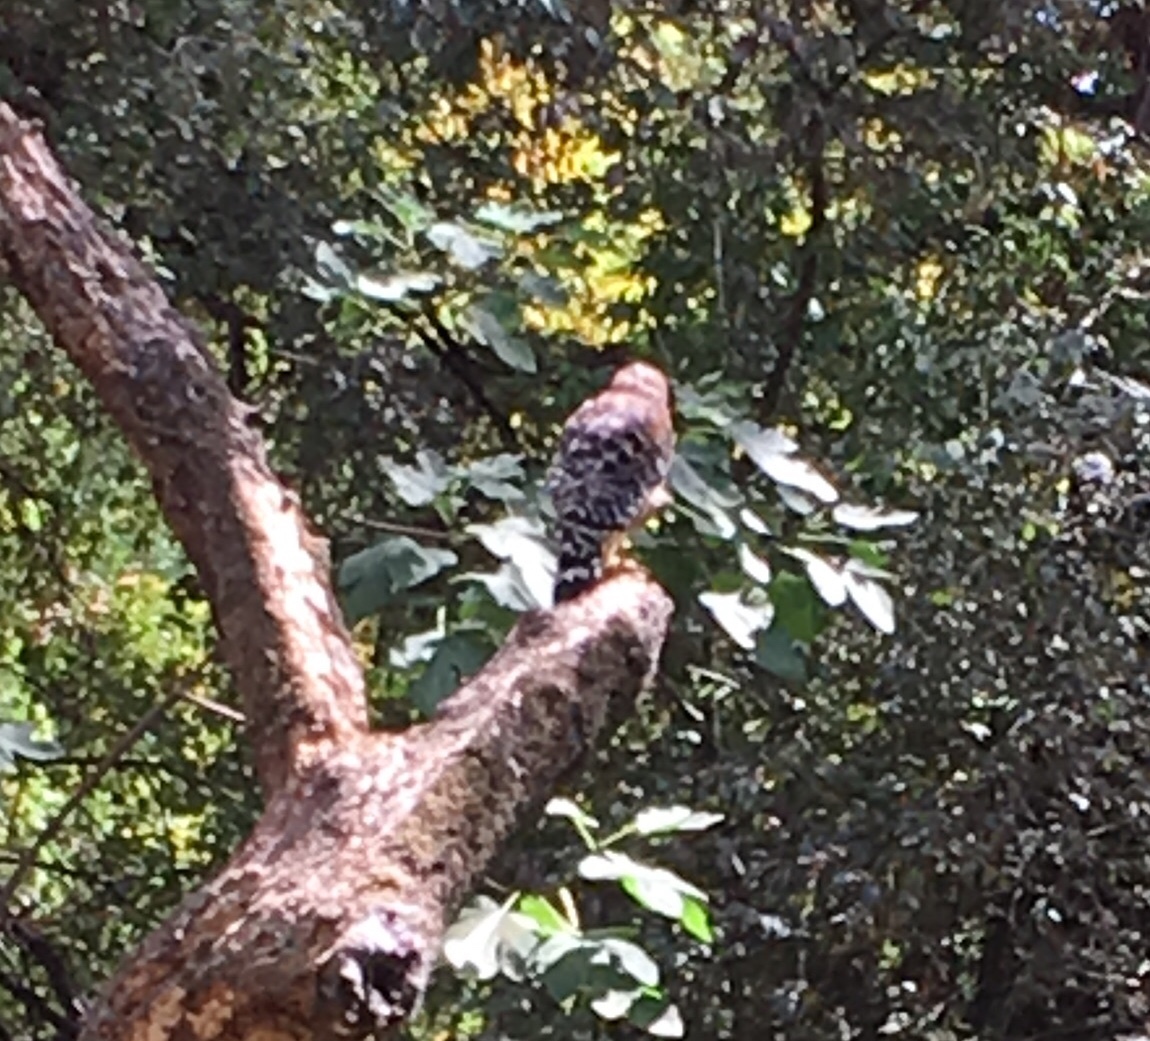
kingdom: Animalia
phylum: Chordata
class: Aves
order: Accipitriformes
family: Accipitridae
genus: Buteo
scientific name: Buteo lineatus
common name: Red-shouldered hawk
